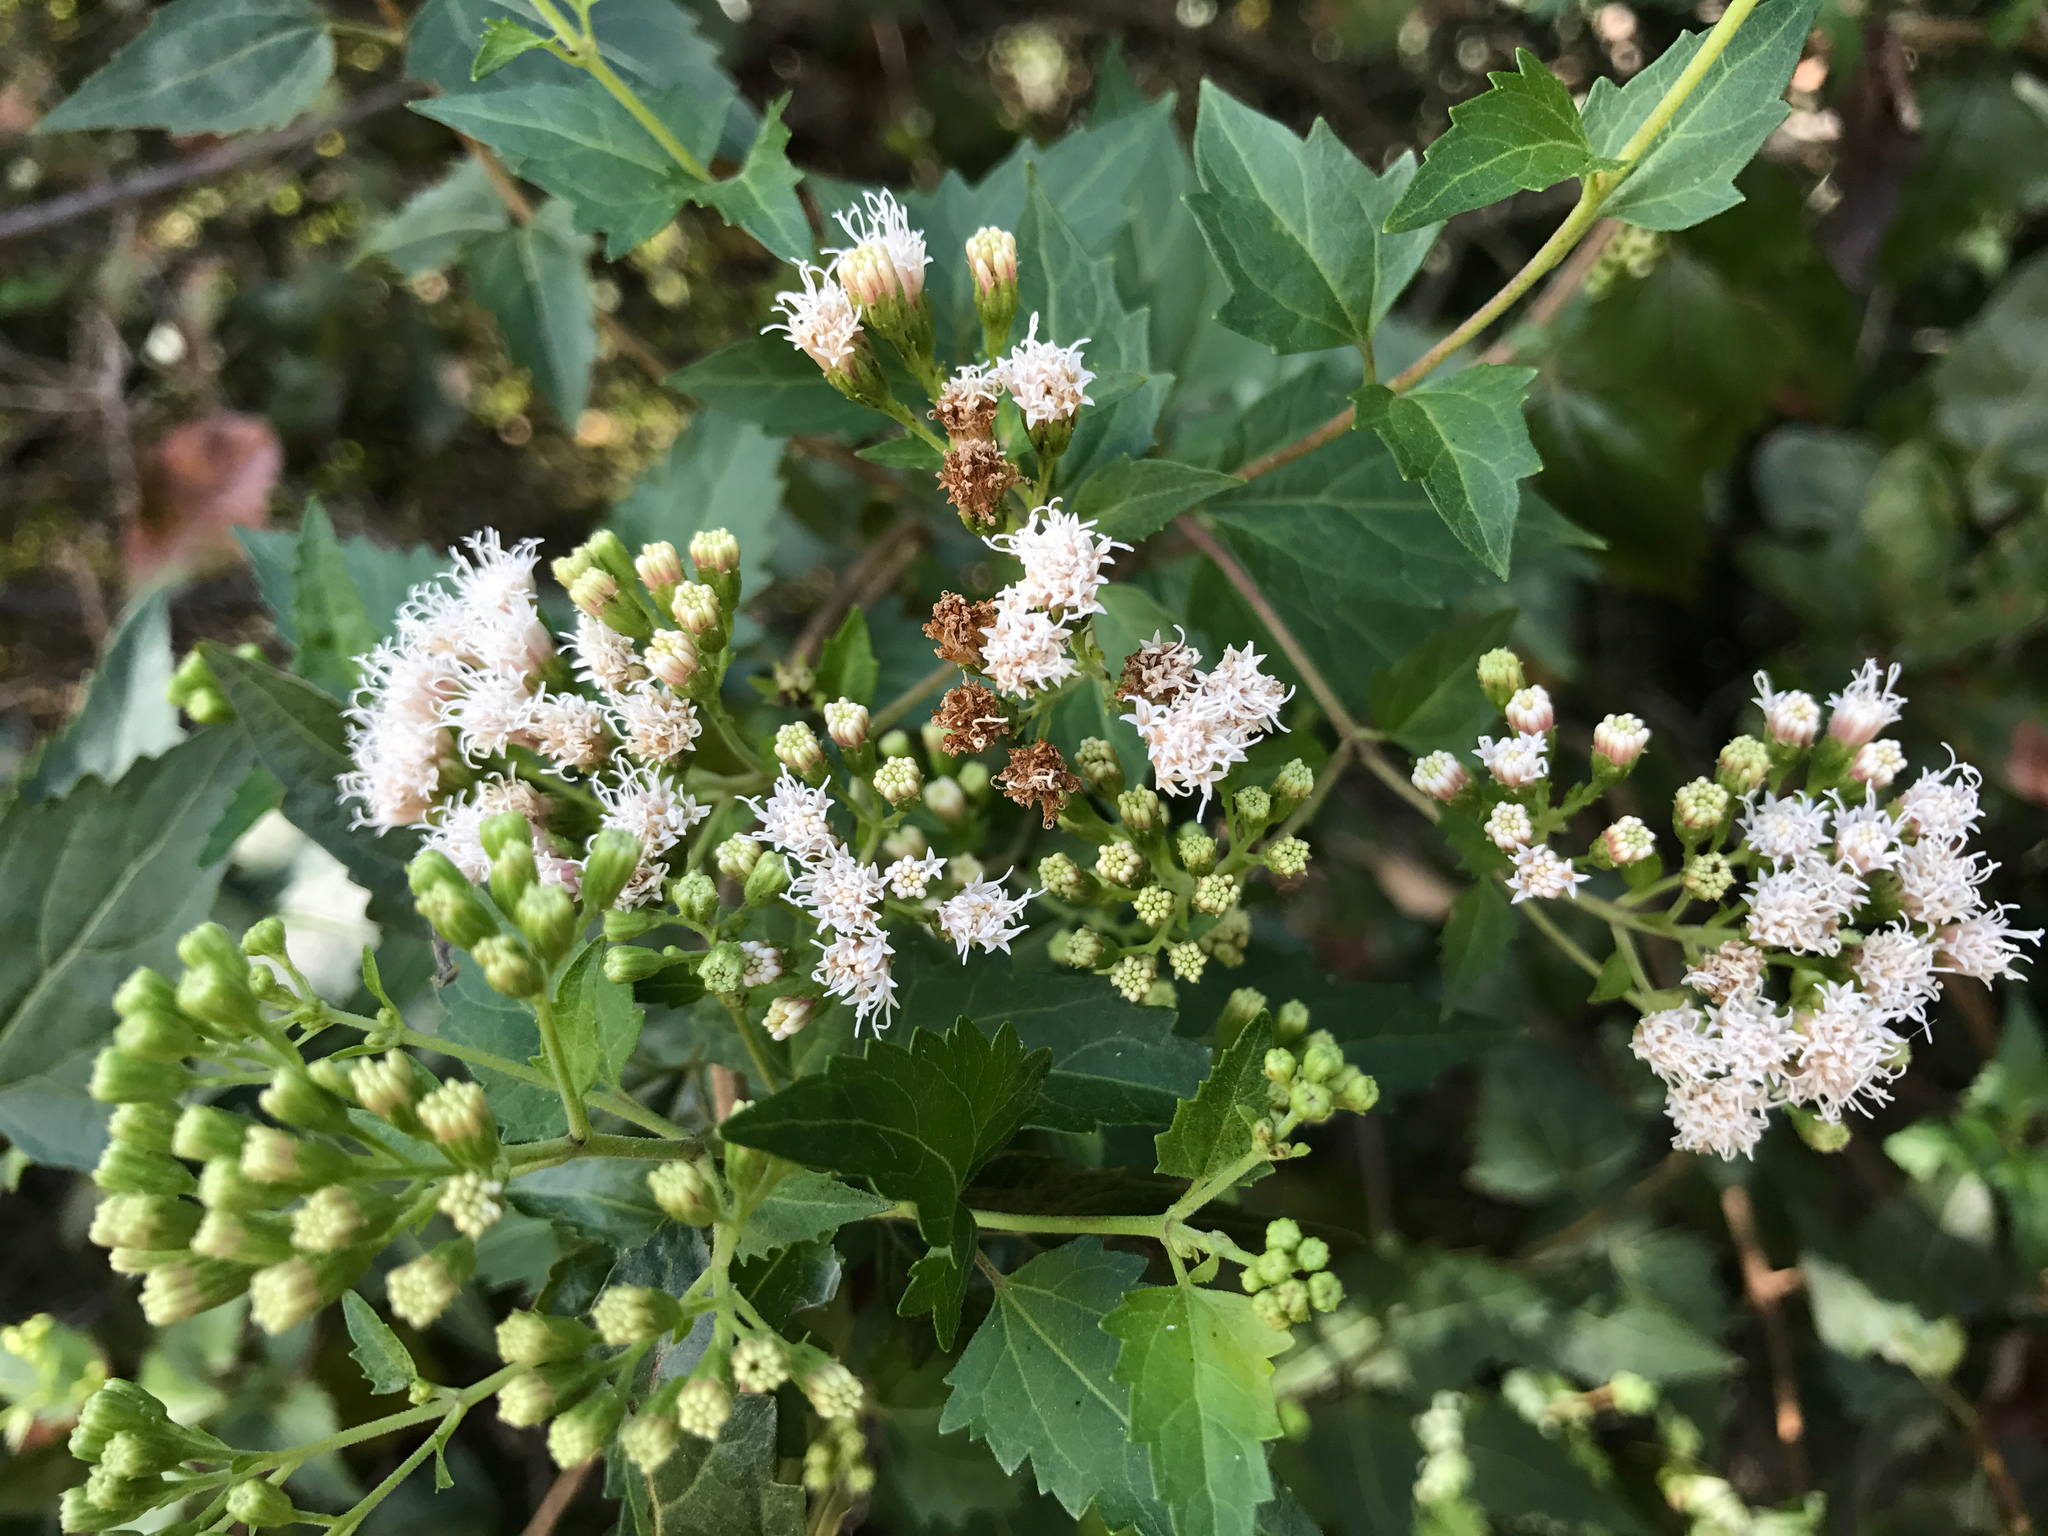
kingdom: Plantae
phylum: Tracheophyta
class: Magnoliopsida
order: Asterales
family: Asteraceae
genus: Ageratina
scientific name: Ageratina havanensis
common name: Havana snakeroot
